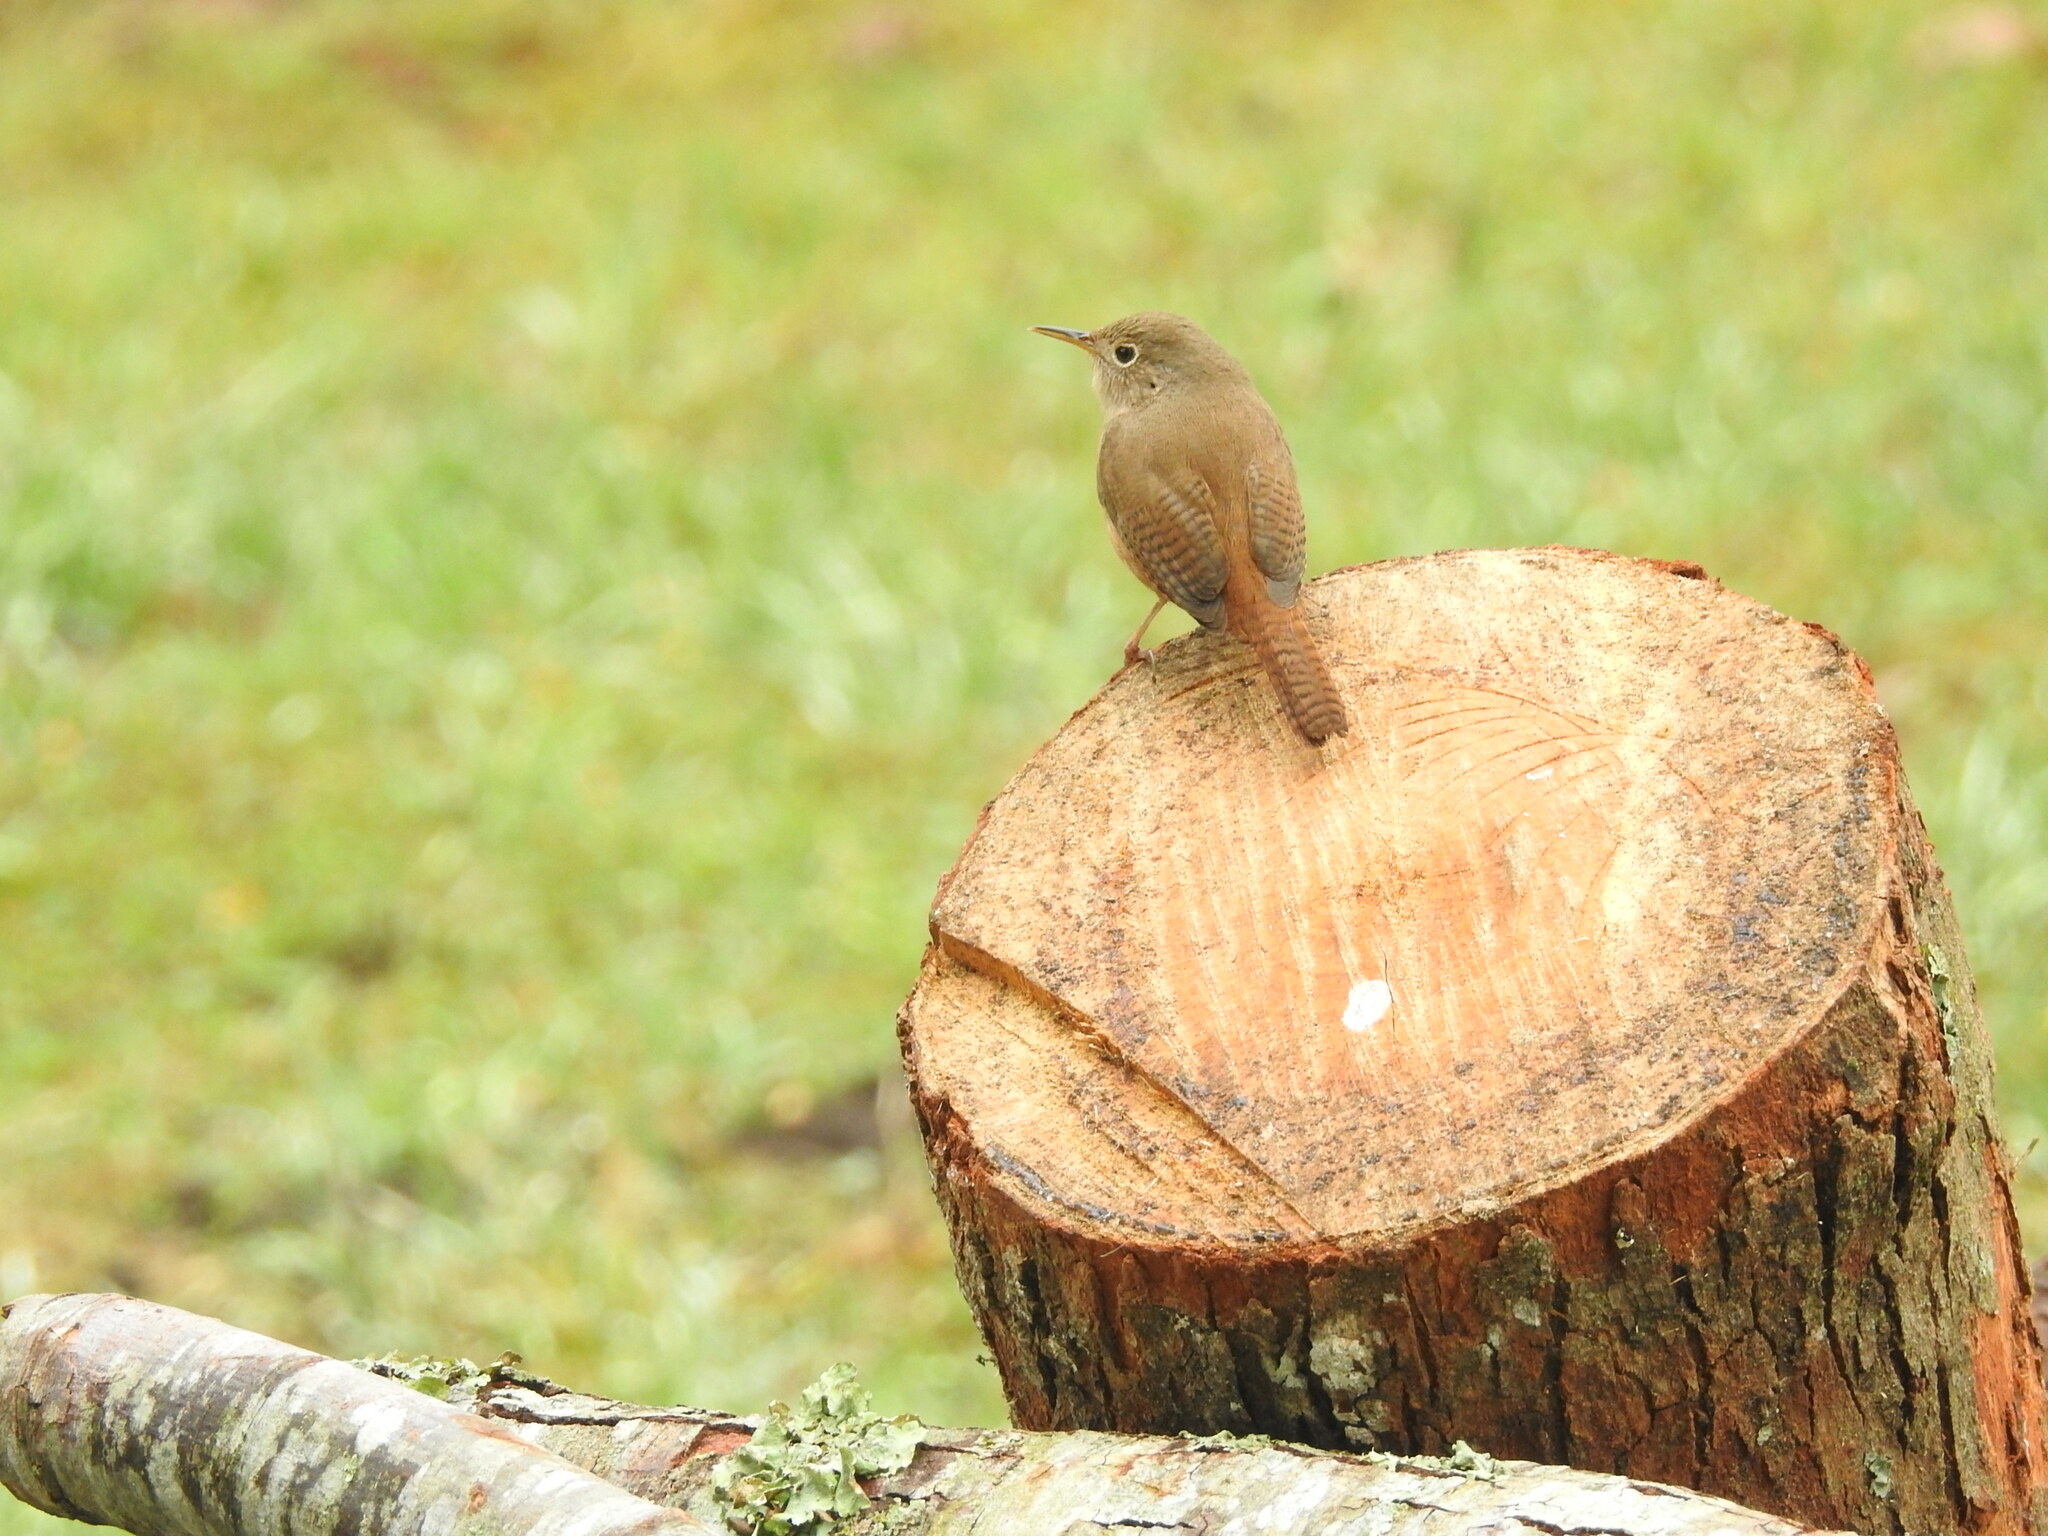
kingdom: Animalia
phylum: Chordata
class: Aves
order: Passeriformes
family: Troglodytidae
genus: Troglodytes
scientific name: Troglodytes aedon
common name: House wren
